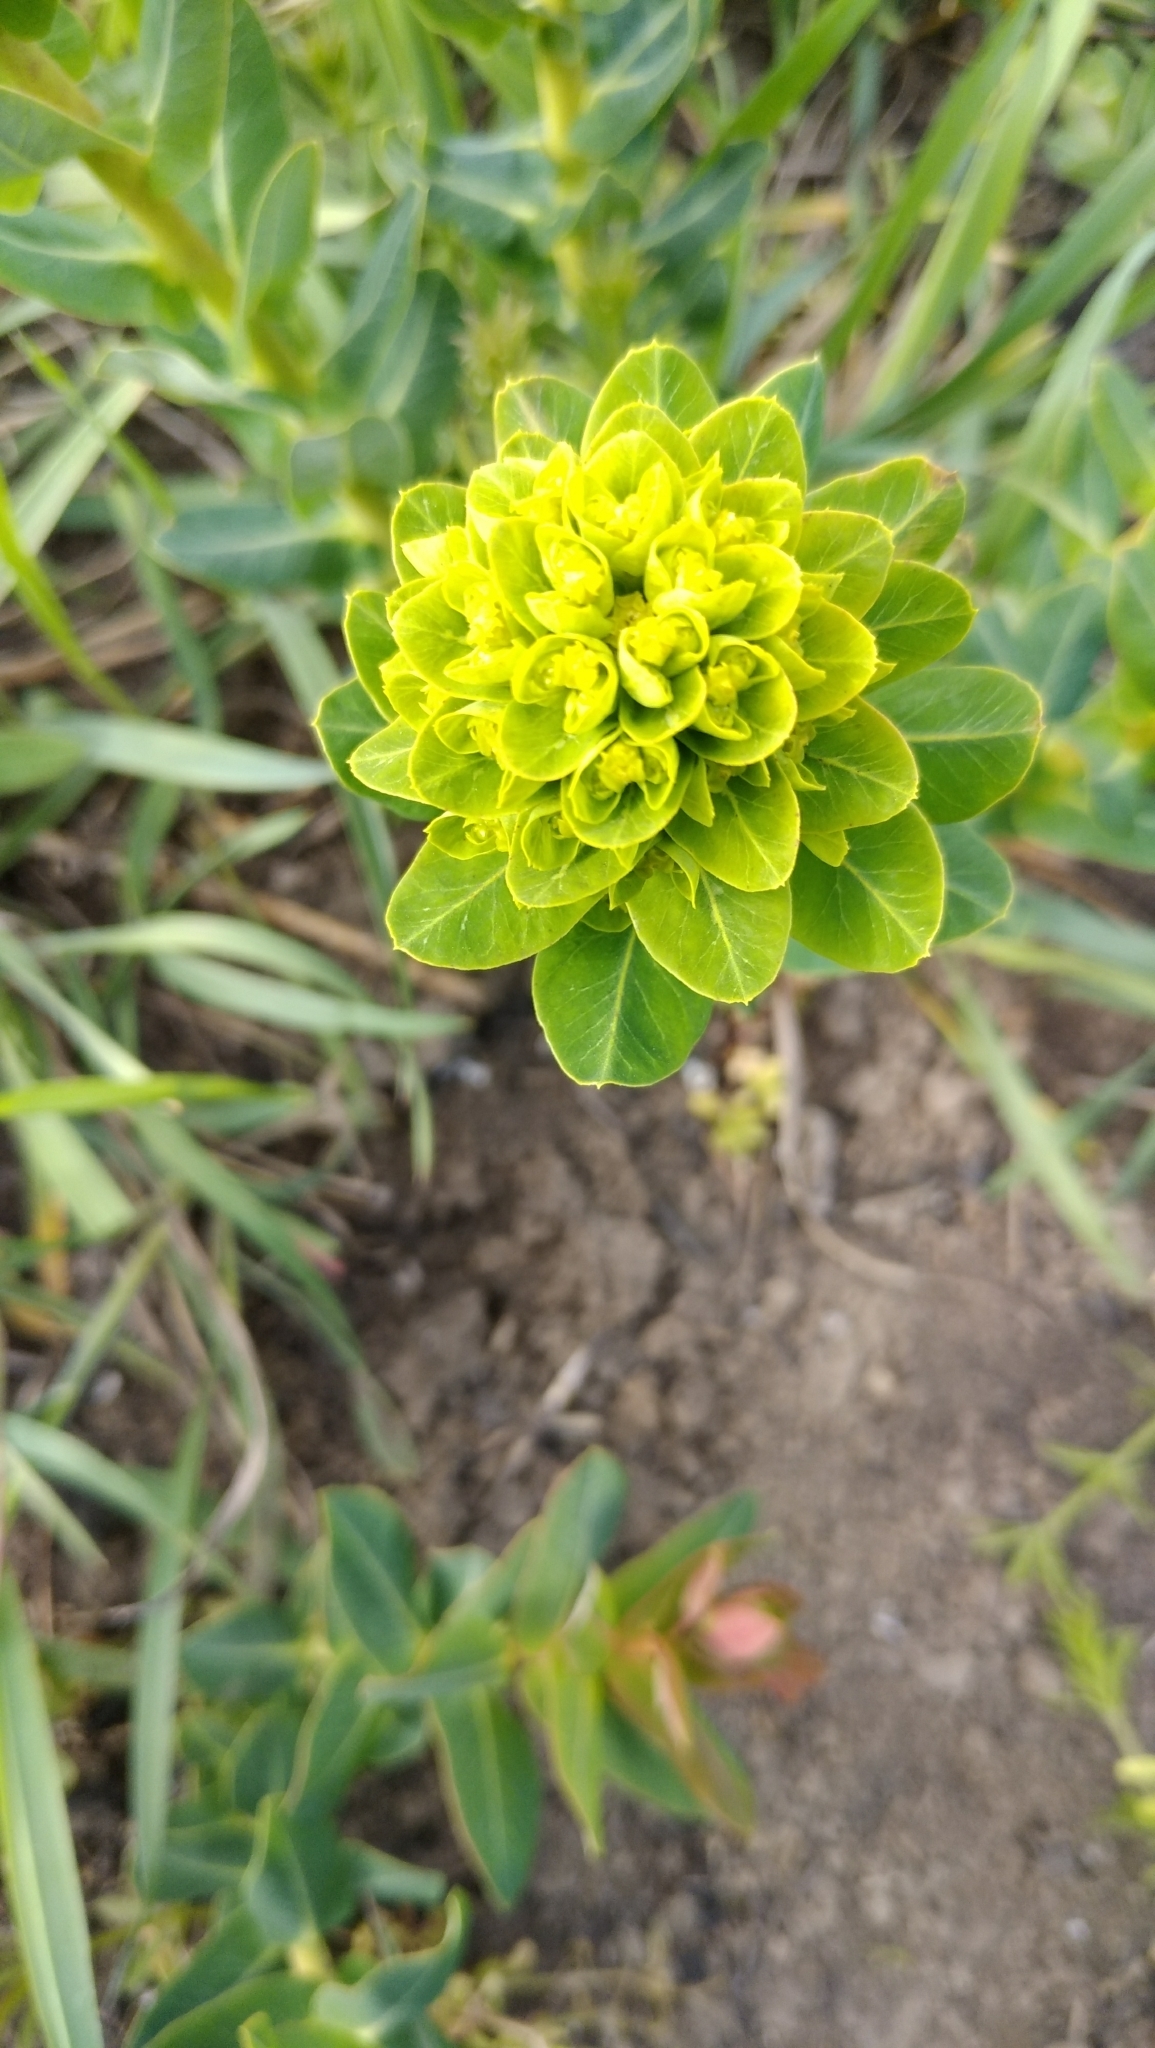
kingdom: Plantae
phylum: Tracheophyta
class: Magnoliopsida
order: Malpighiales
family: Euphorbiaceae
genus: Euphorbia
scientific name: Euphorbia agraria
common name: Urban spurge
